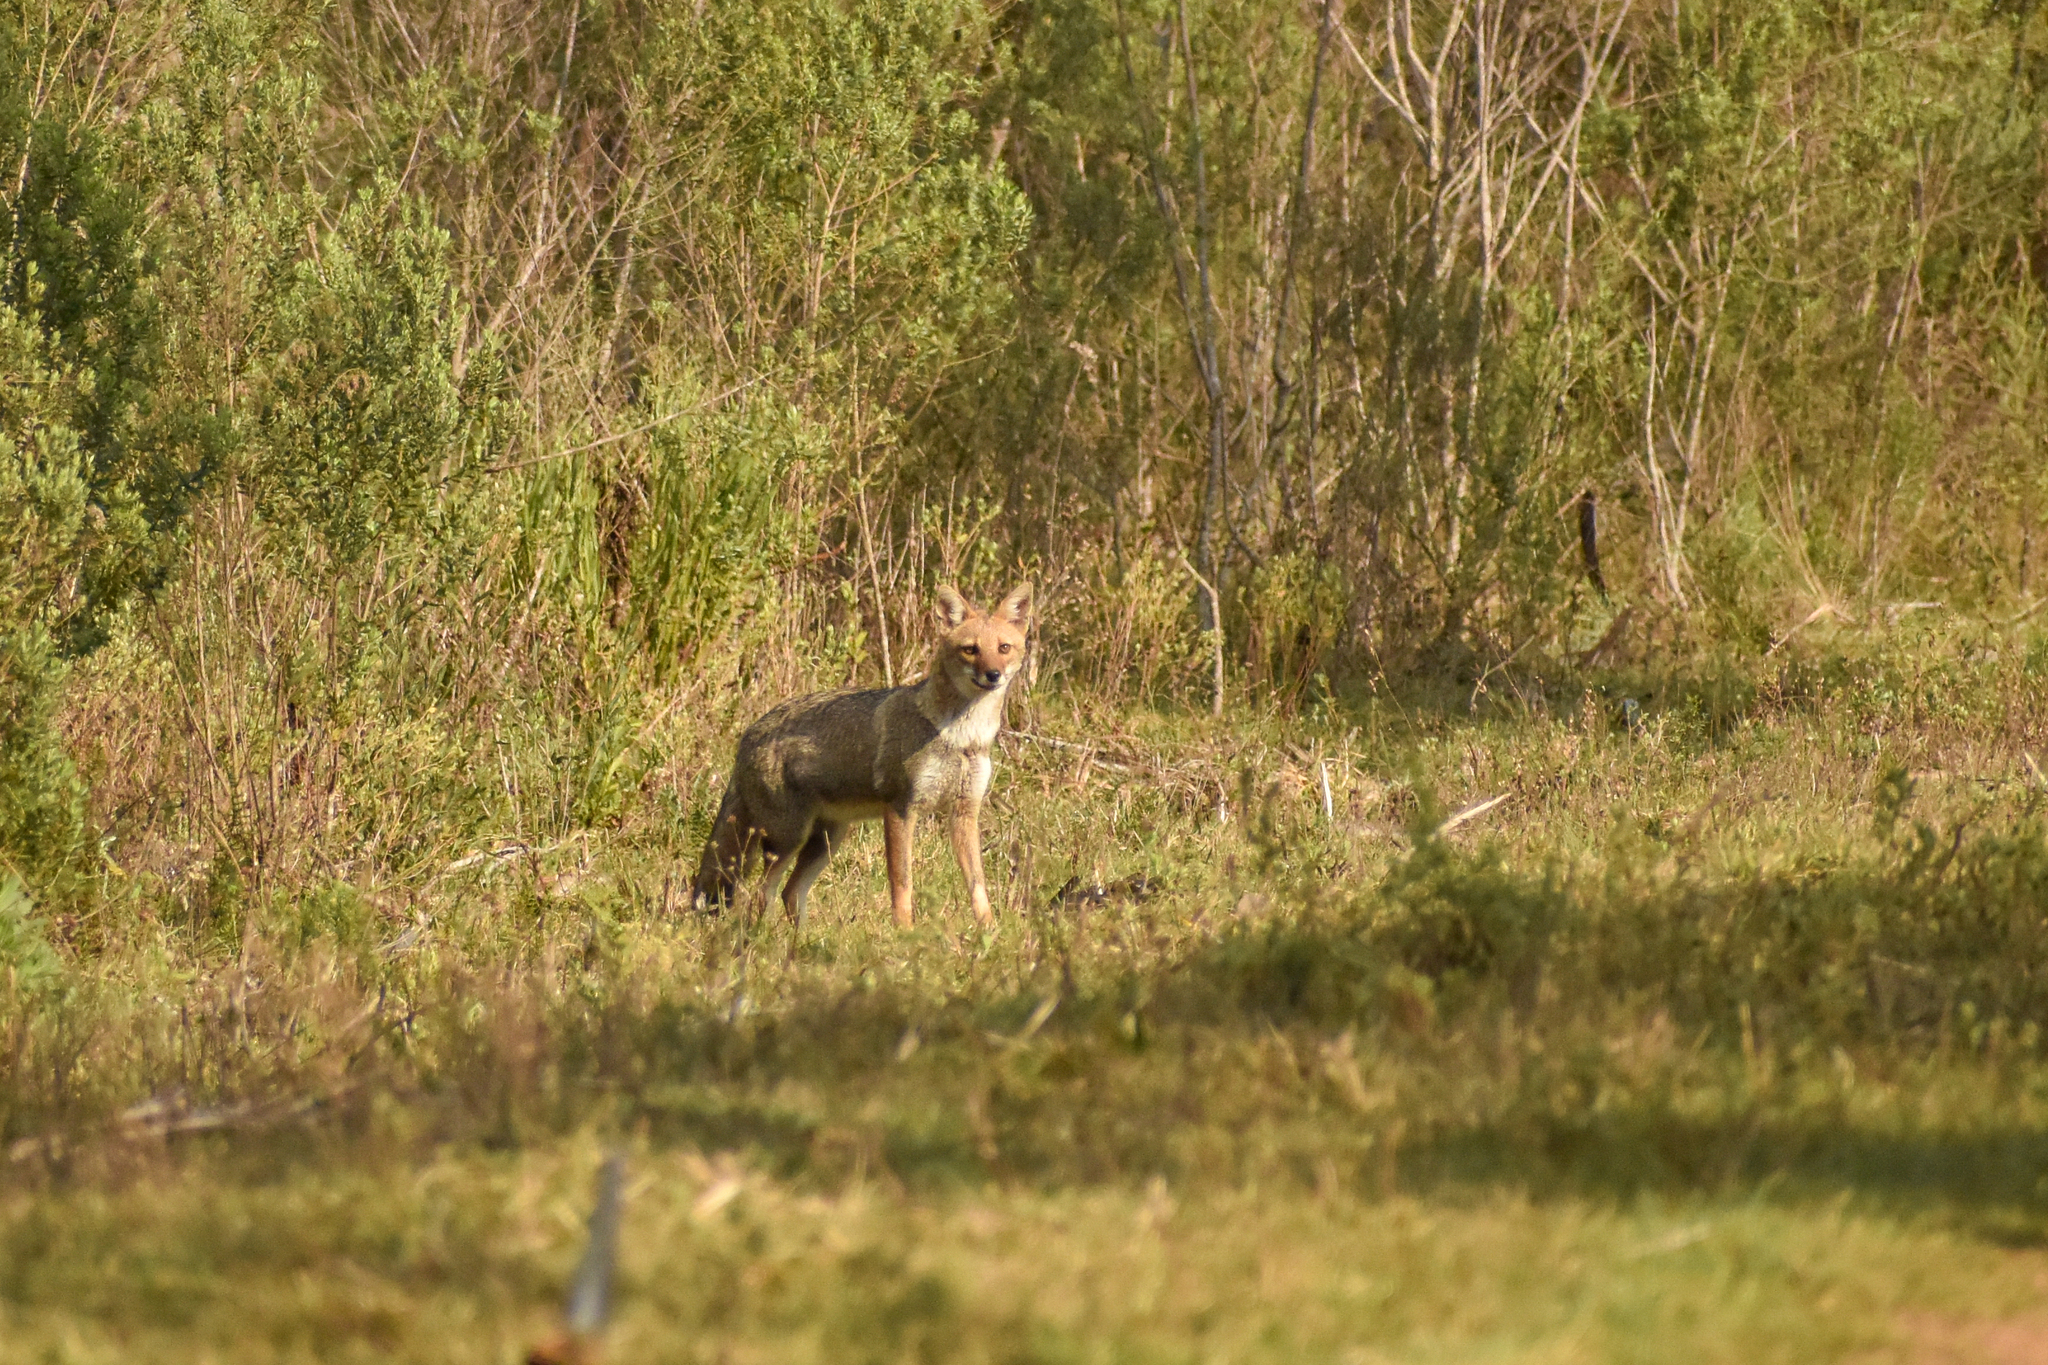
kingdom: Animalia
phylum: Chordata
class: Mammalia
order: Carnivora
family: Canidae
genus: Lycalopex
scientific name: Lycalopex gymnocercus
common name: Pampas fox
